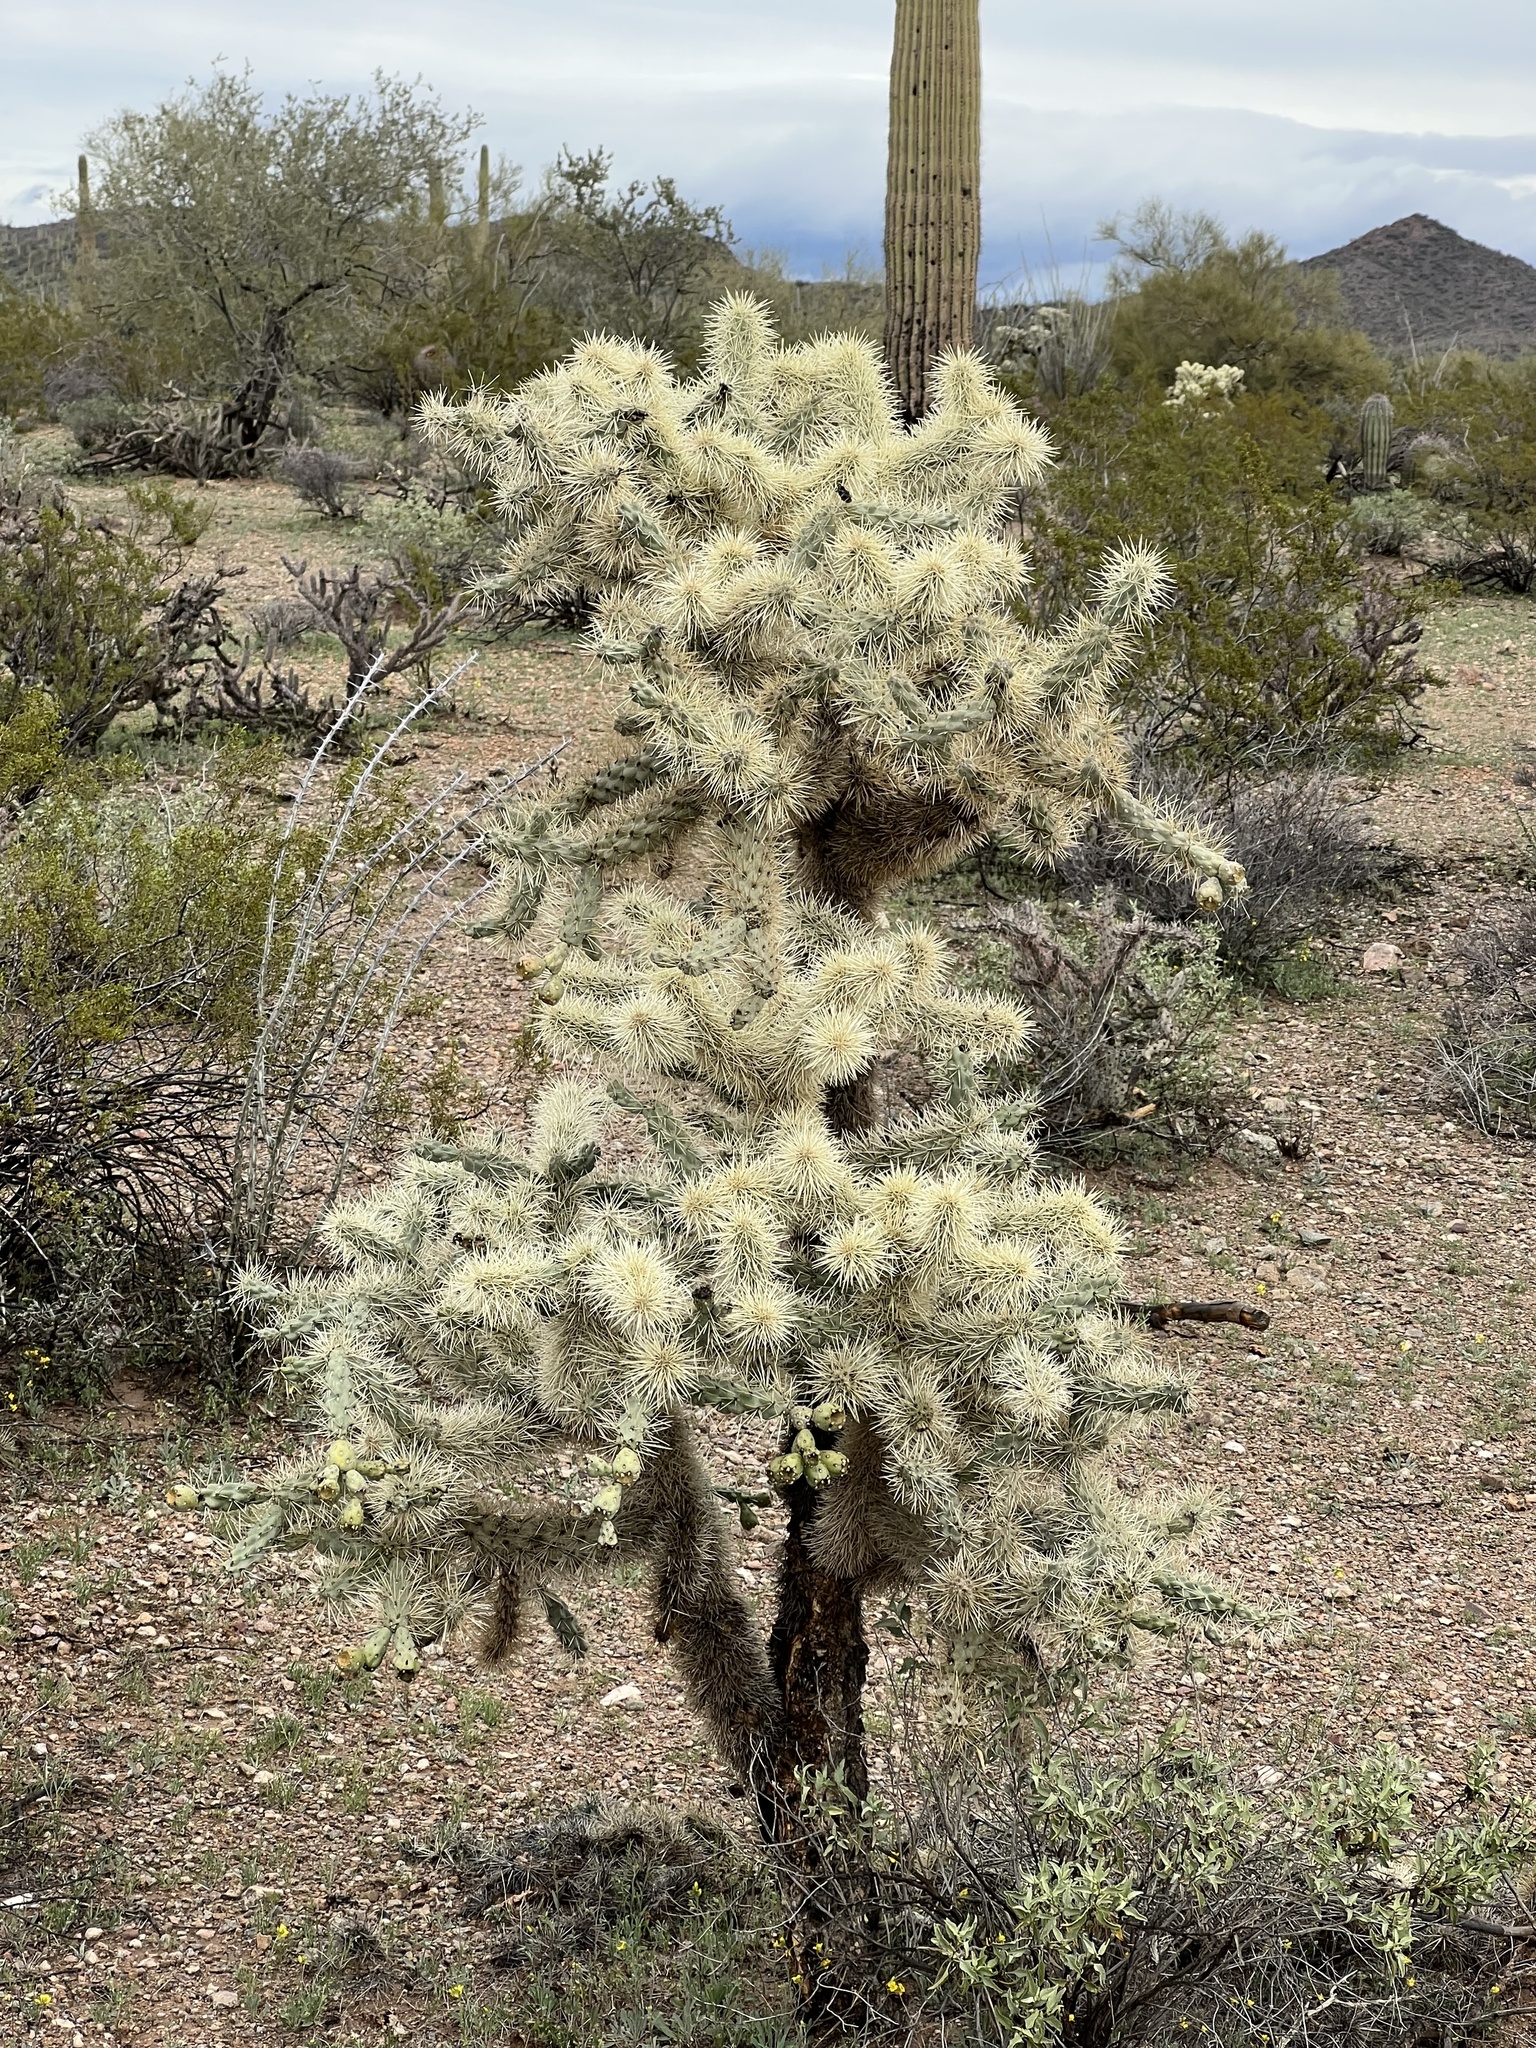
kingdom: Plantae
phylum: Tracheophyta
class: Magnoliopsida
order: Caryophyllales
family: Cactaceae
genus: Cylindropuntia
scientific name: Cylindropuntia fulgida
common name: Jumping cholla
